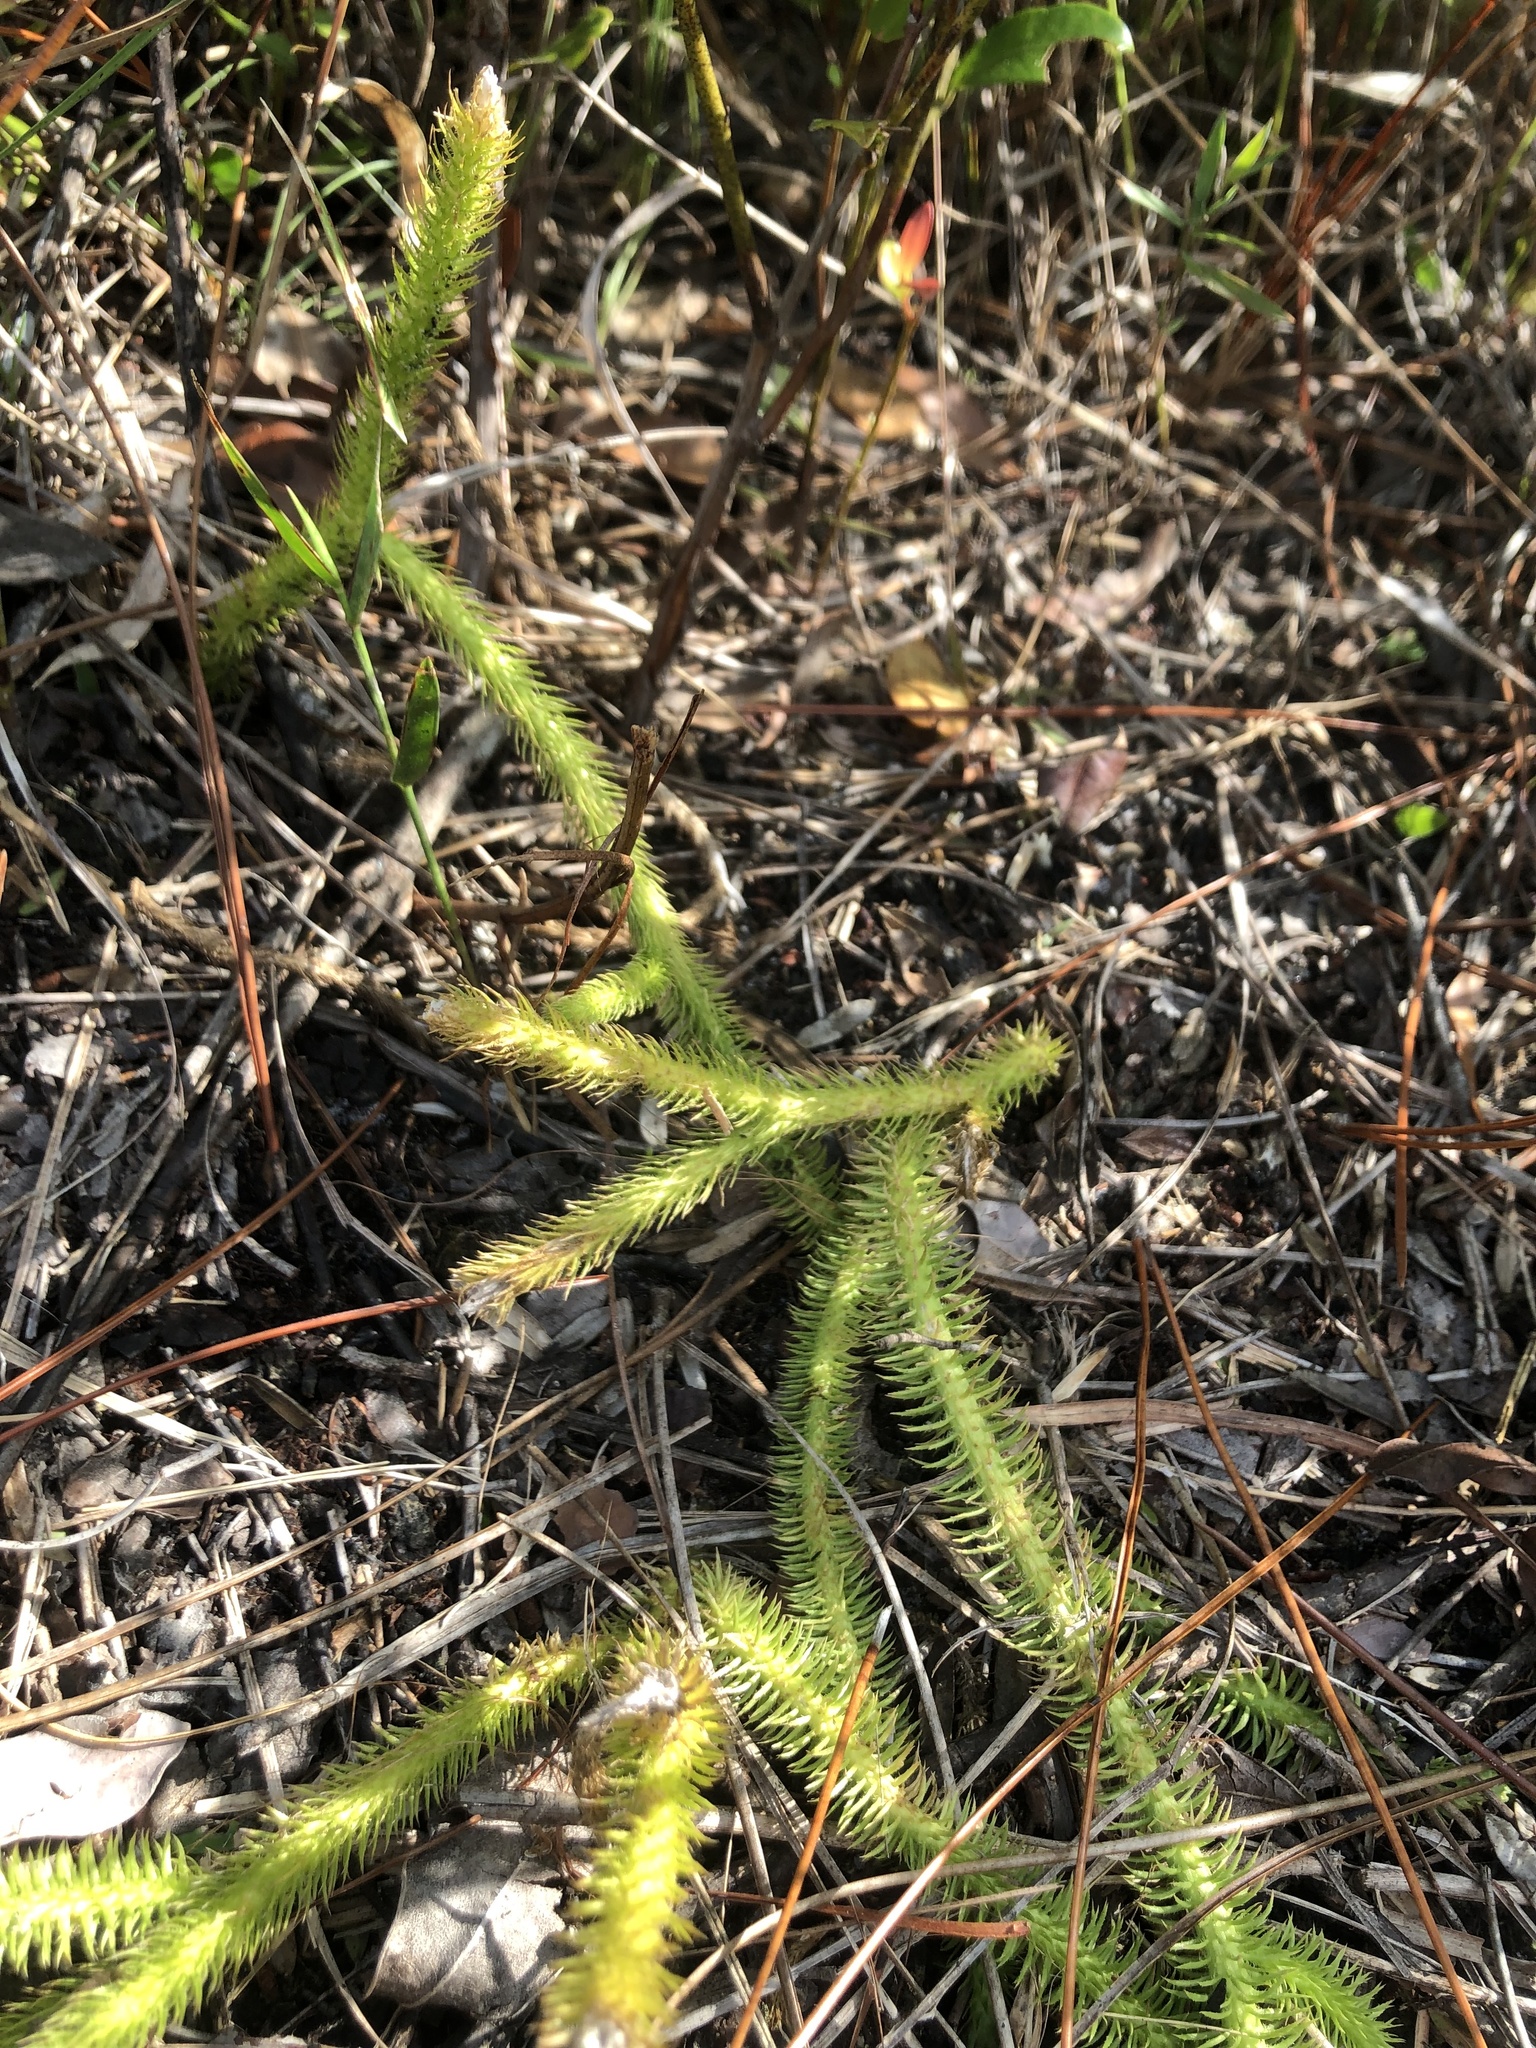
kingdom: Plantae
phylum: Tracheophyta
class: Lycopodiopsida
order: Lycopodiales
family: Lycopodiaceae
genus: Lycopodiella
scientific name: Lycopodiella alopecuroides
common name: Foxtail clubmoss
